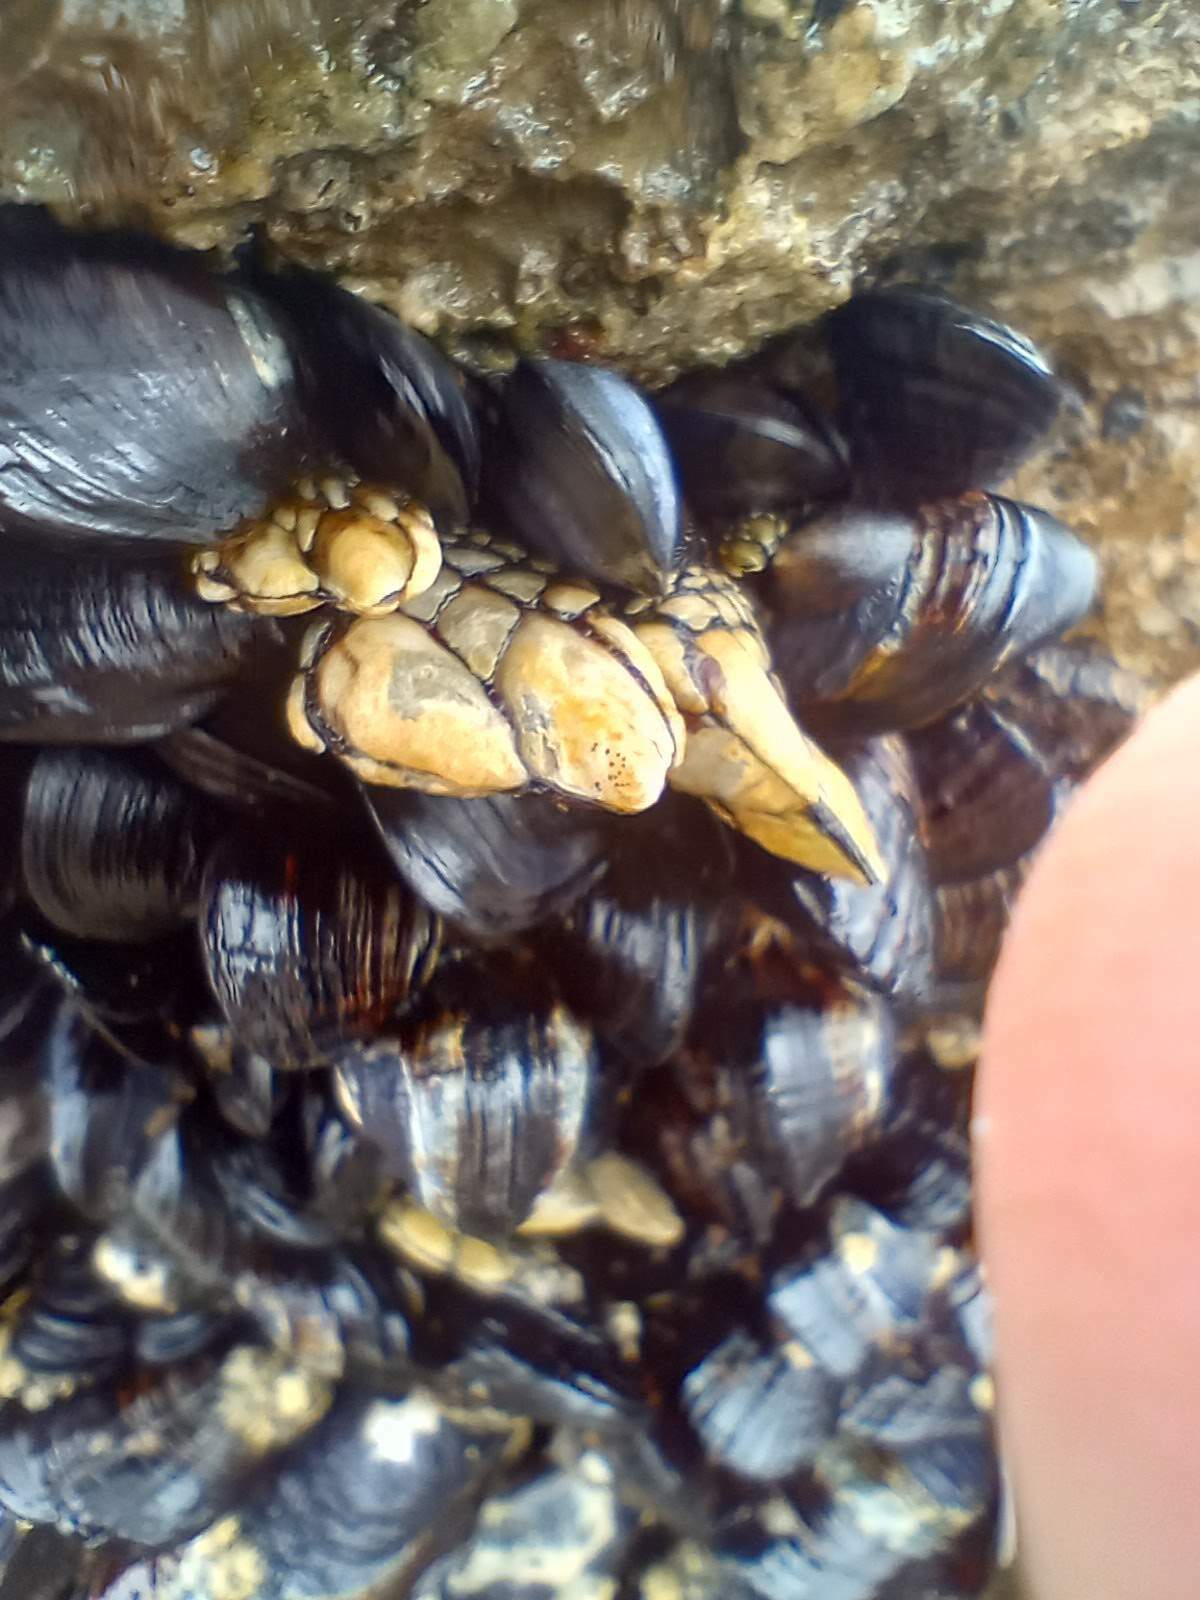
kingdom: Animalia
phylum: Arthropoda
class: Maxillopoda
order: Pedunculata
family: Pollicipedidae
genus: Pollicipes
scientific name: Pollicipes polymerus
